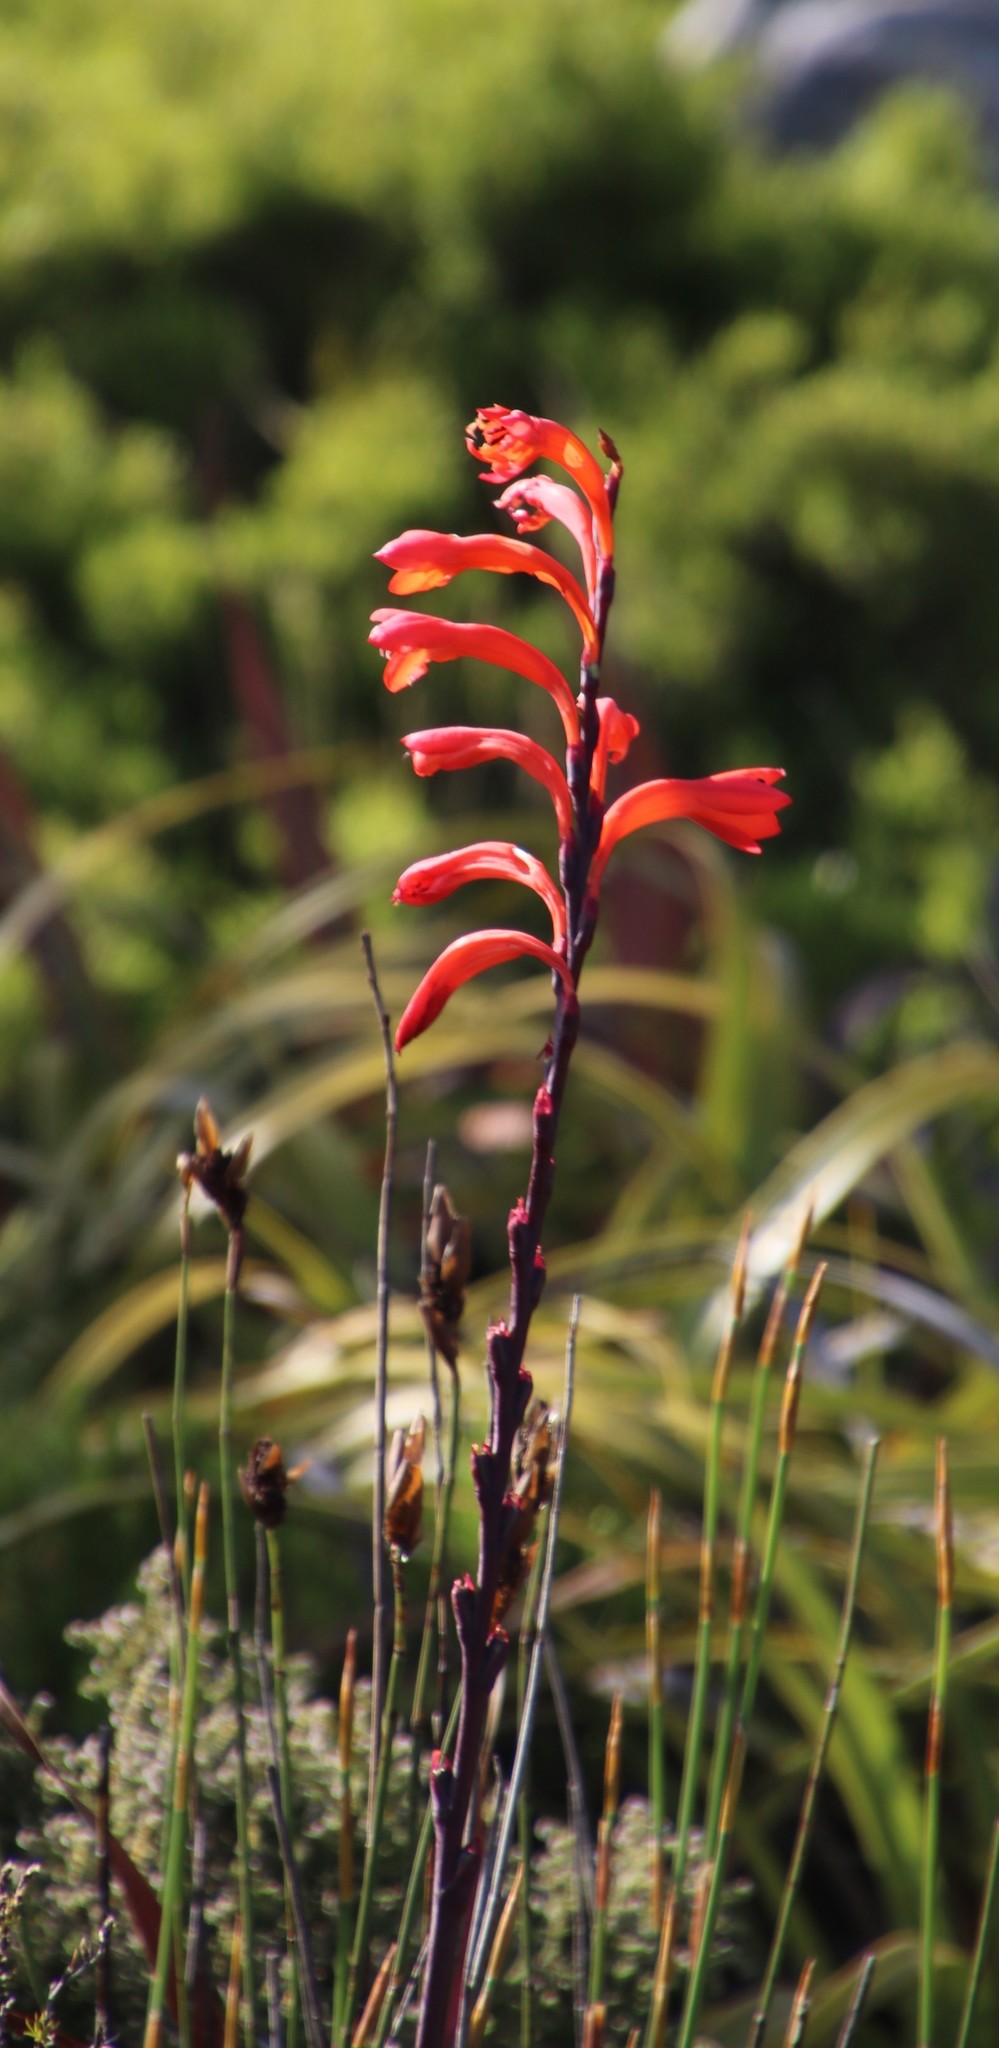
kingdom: Plantae
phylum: Tracheophyta
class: Liliopsida
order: Asparagales
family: Iridaceae
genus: Watsonia
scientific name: Watsonia tabularis
